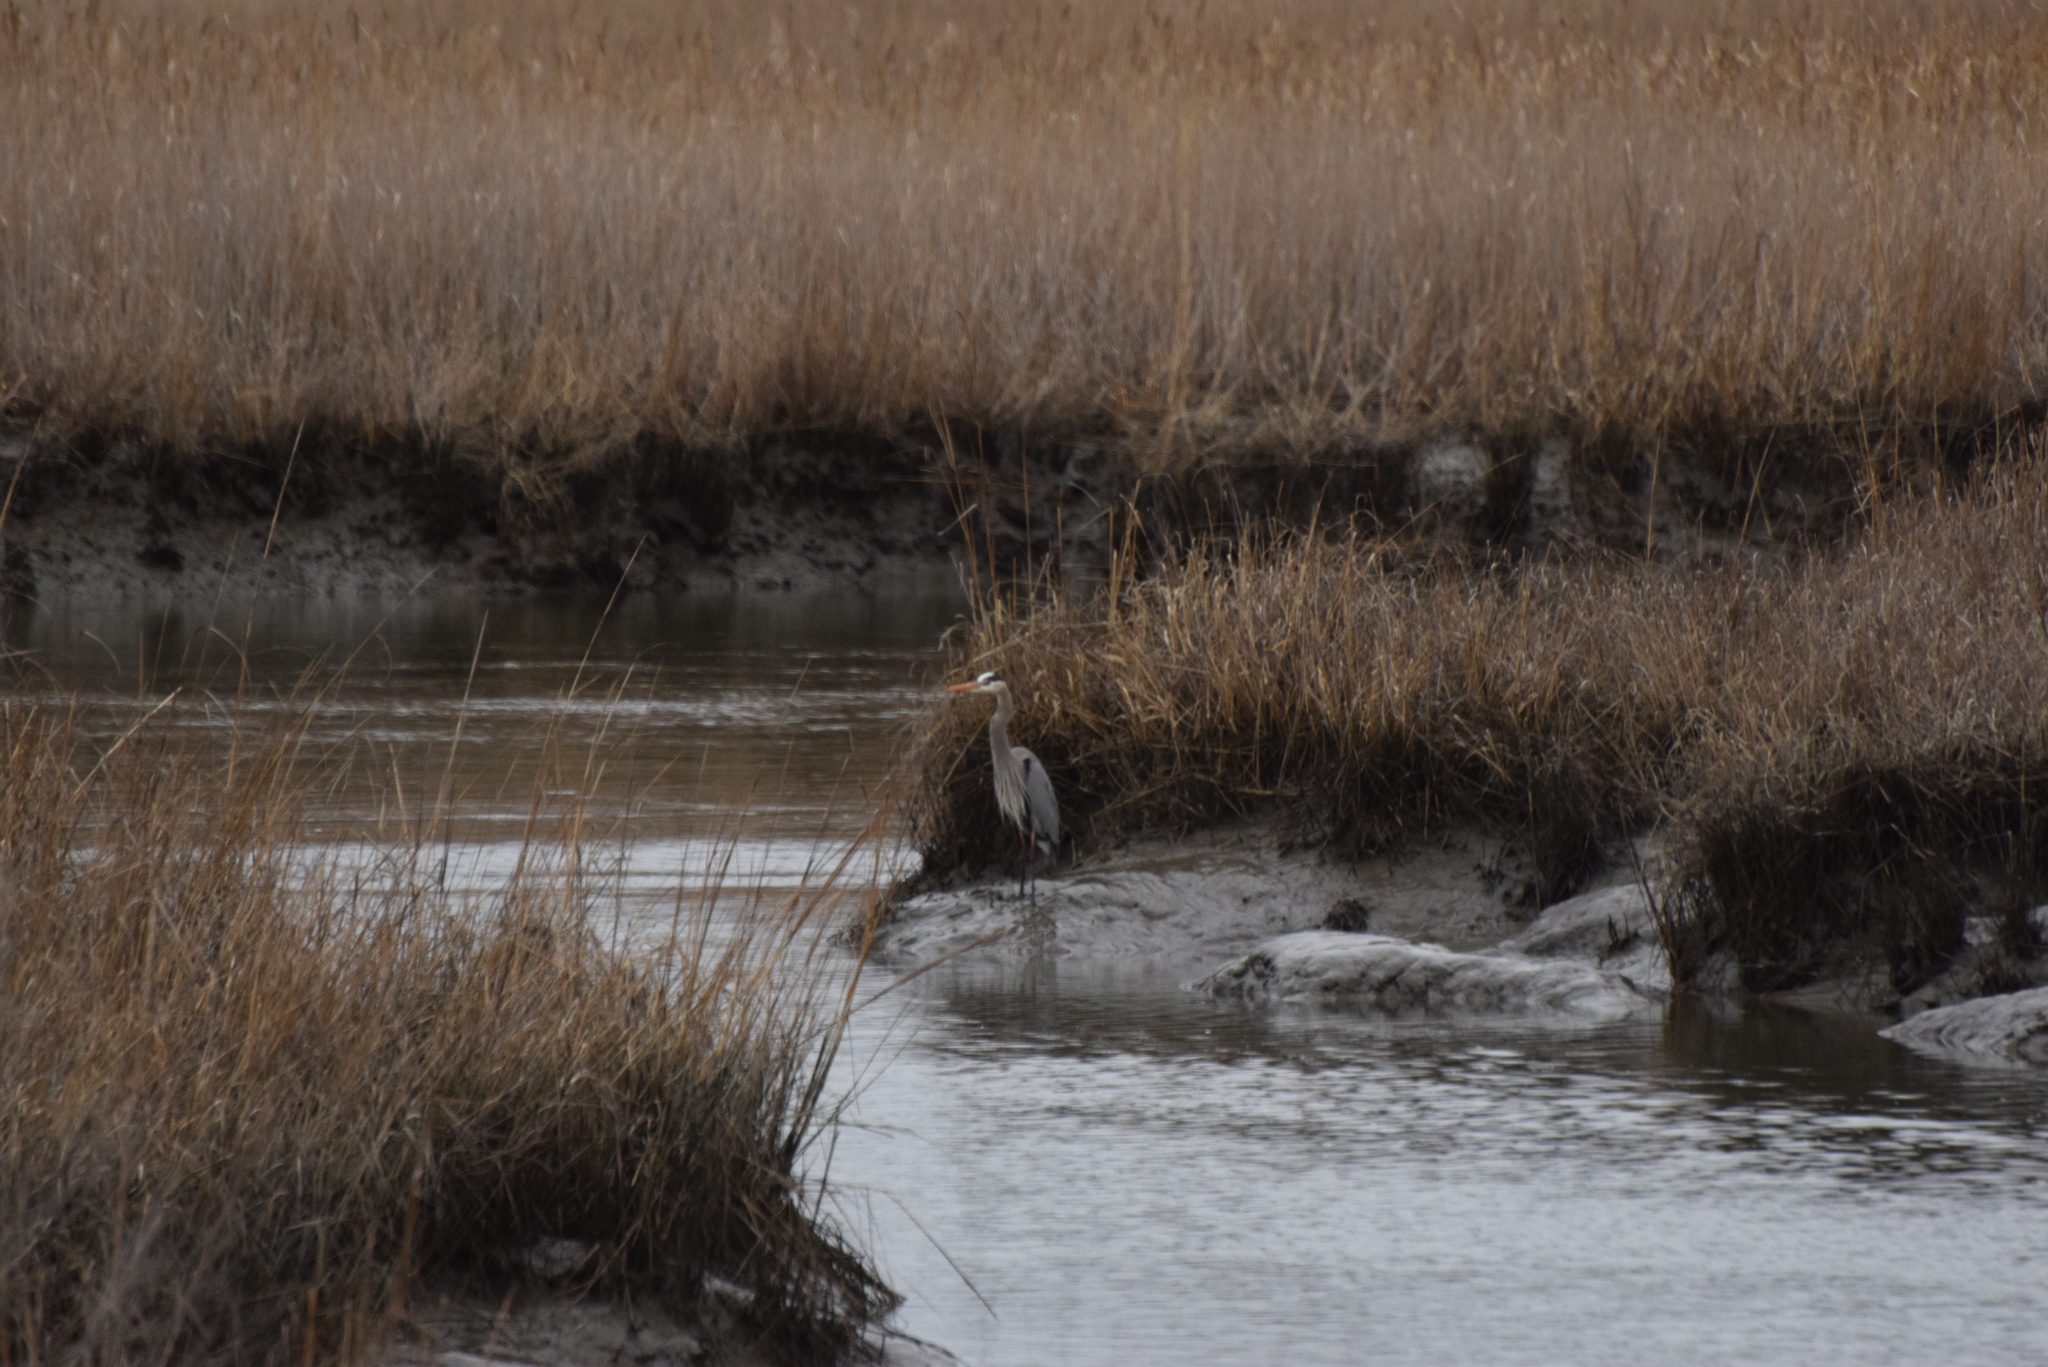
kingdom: Animalia
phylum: Chordata
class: Aves
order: Pelecaniformes
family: Ardeidae
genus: Ardea
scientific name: Ardea herodias
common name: Great blue heron
